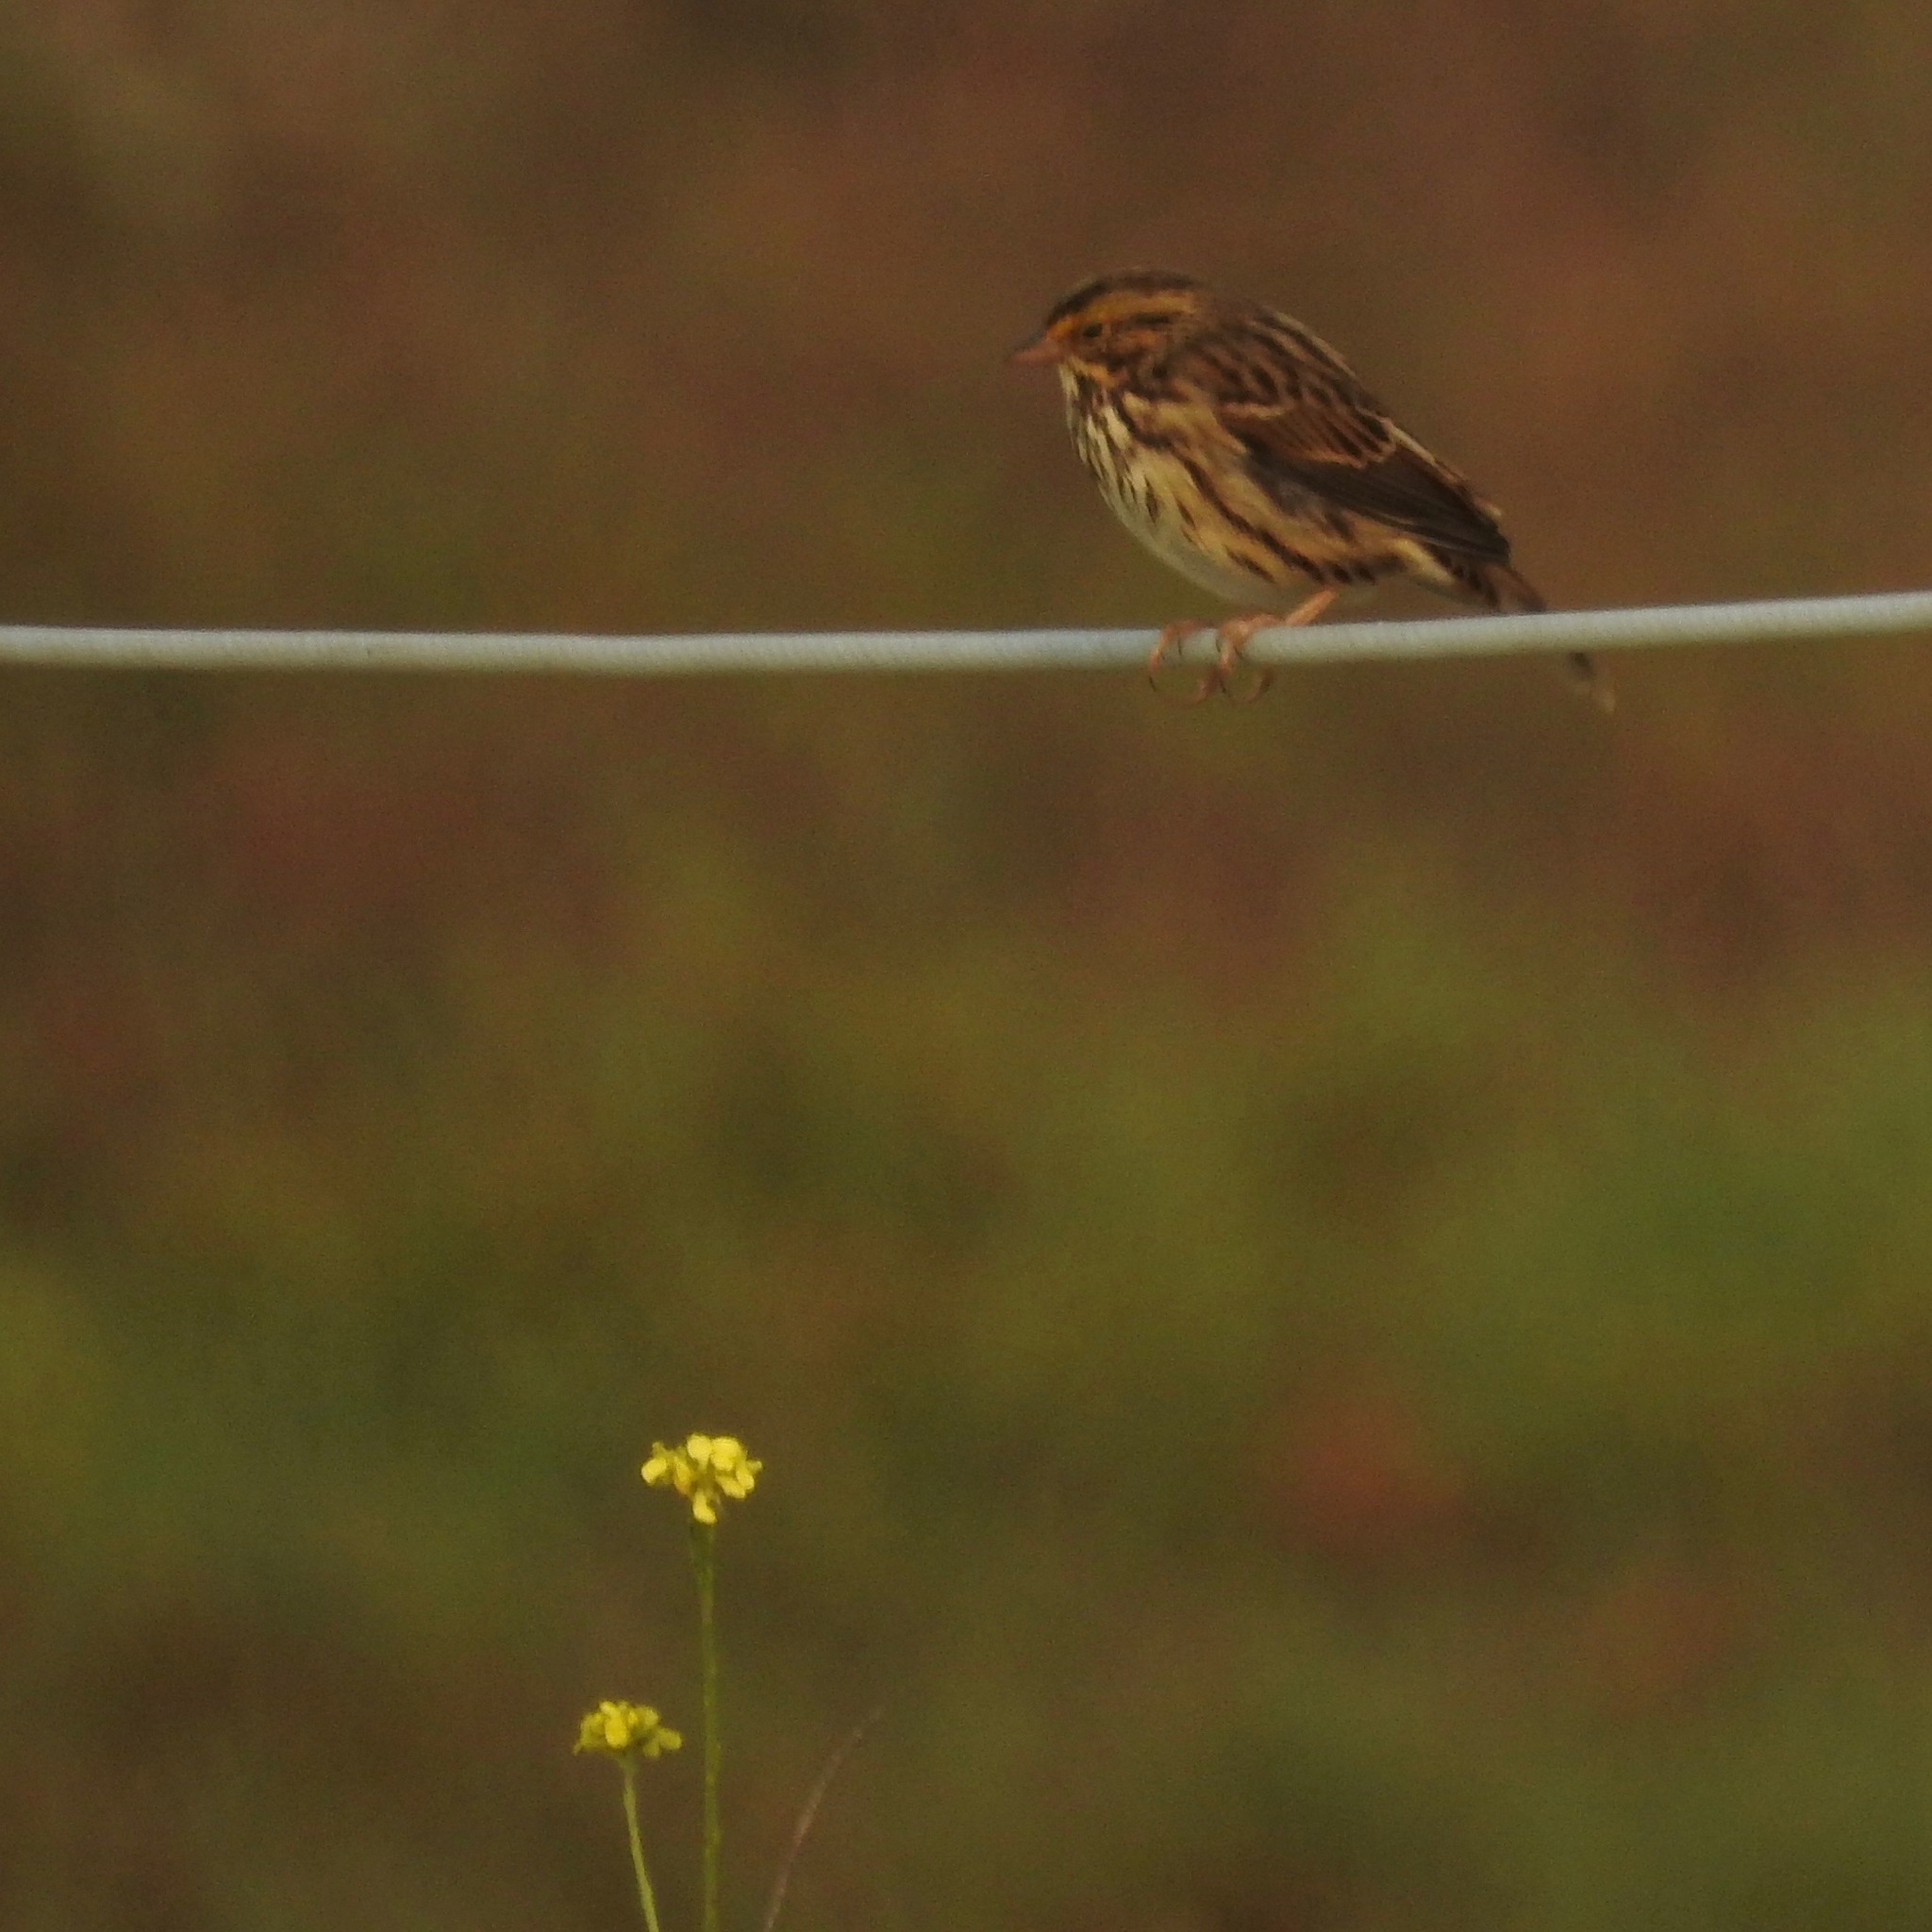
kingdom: Animalia
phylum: Chordata
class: Aves
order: Passeriformes
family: Passerellidae
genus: Passerculus
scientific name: Passerculus sandwichensis
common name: Savannah sparrow
